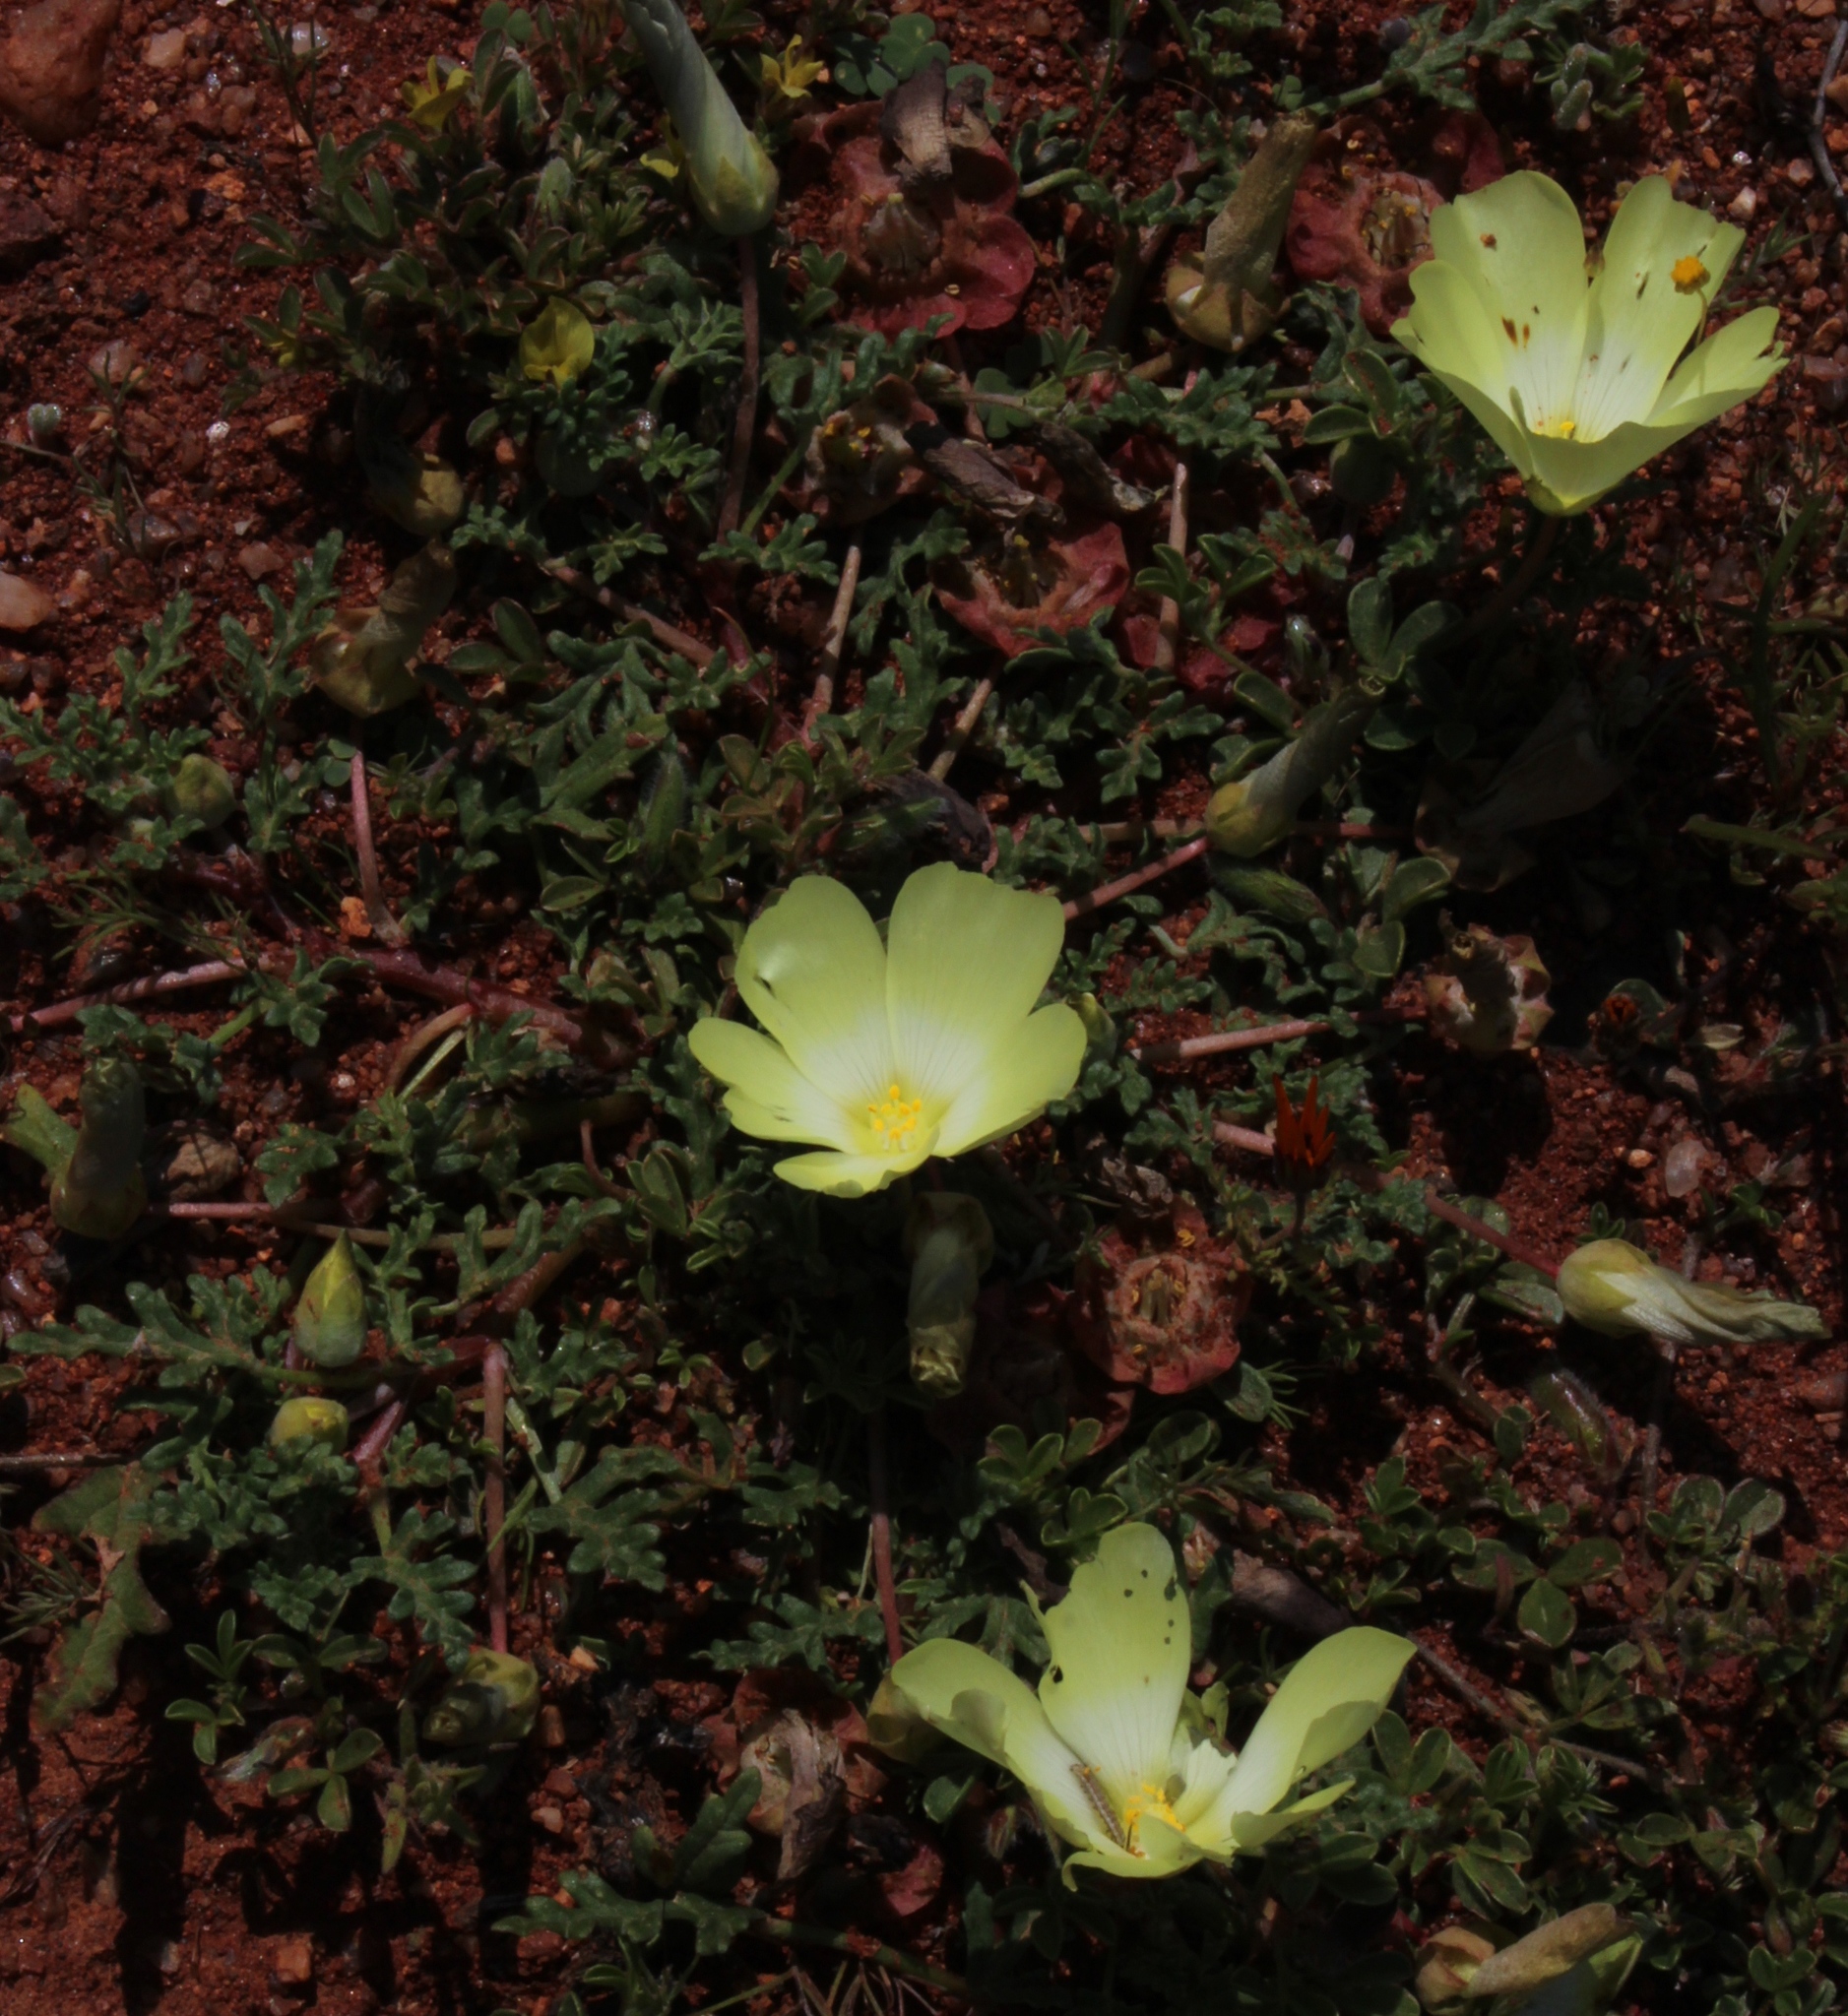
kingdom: Plantae
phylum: Tracheophyta
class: Magnoliopsida
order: Malvales
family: Neuradaceae
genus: Grielum
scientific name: Grielum humifusum
